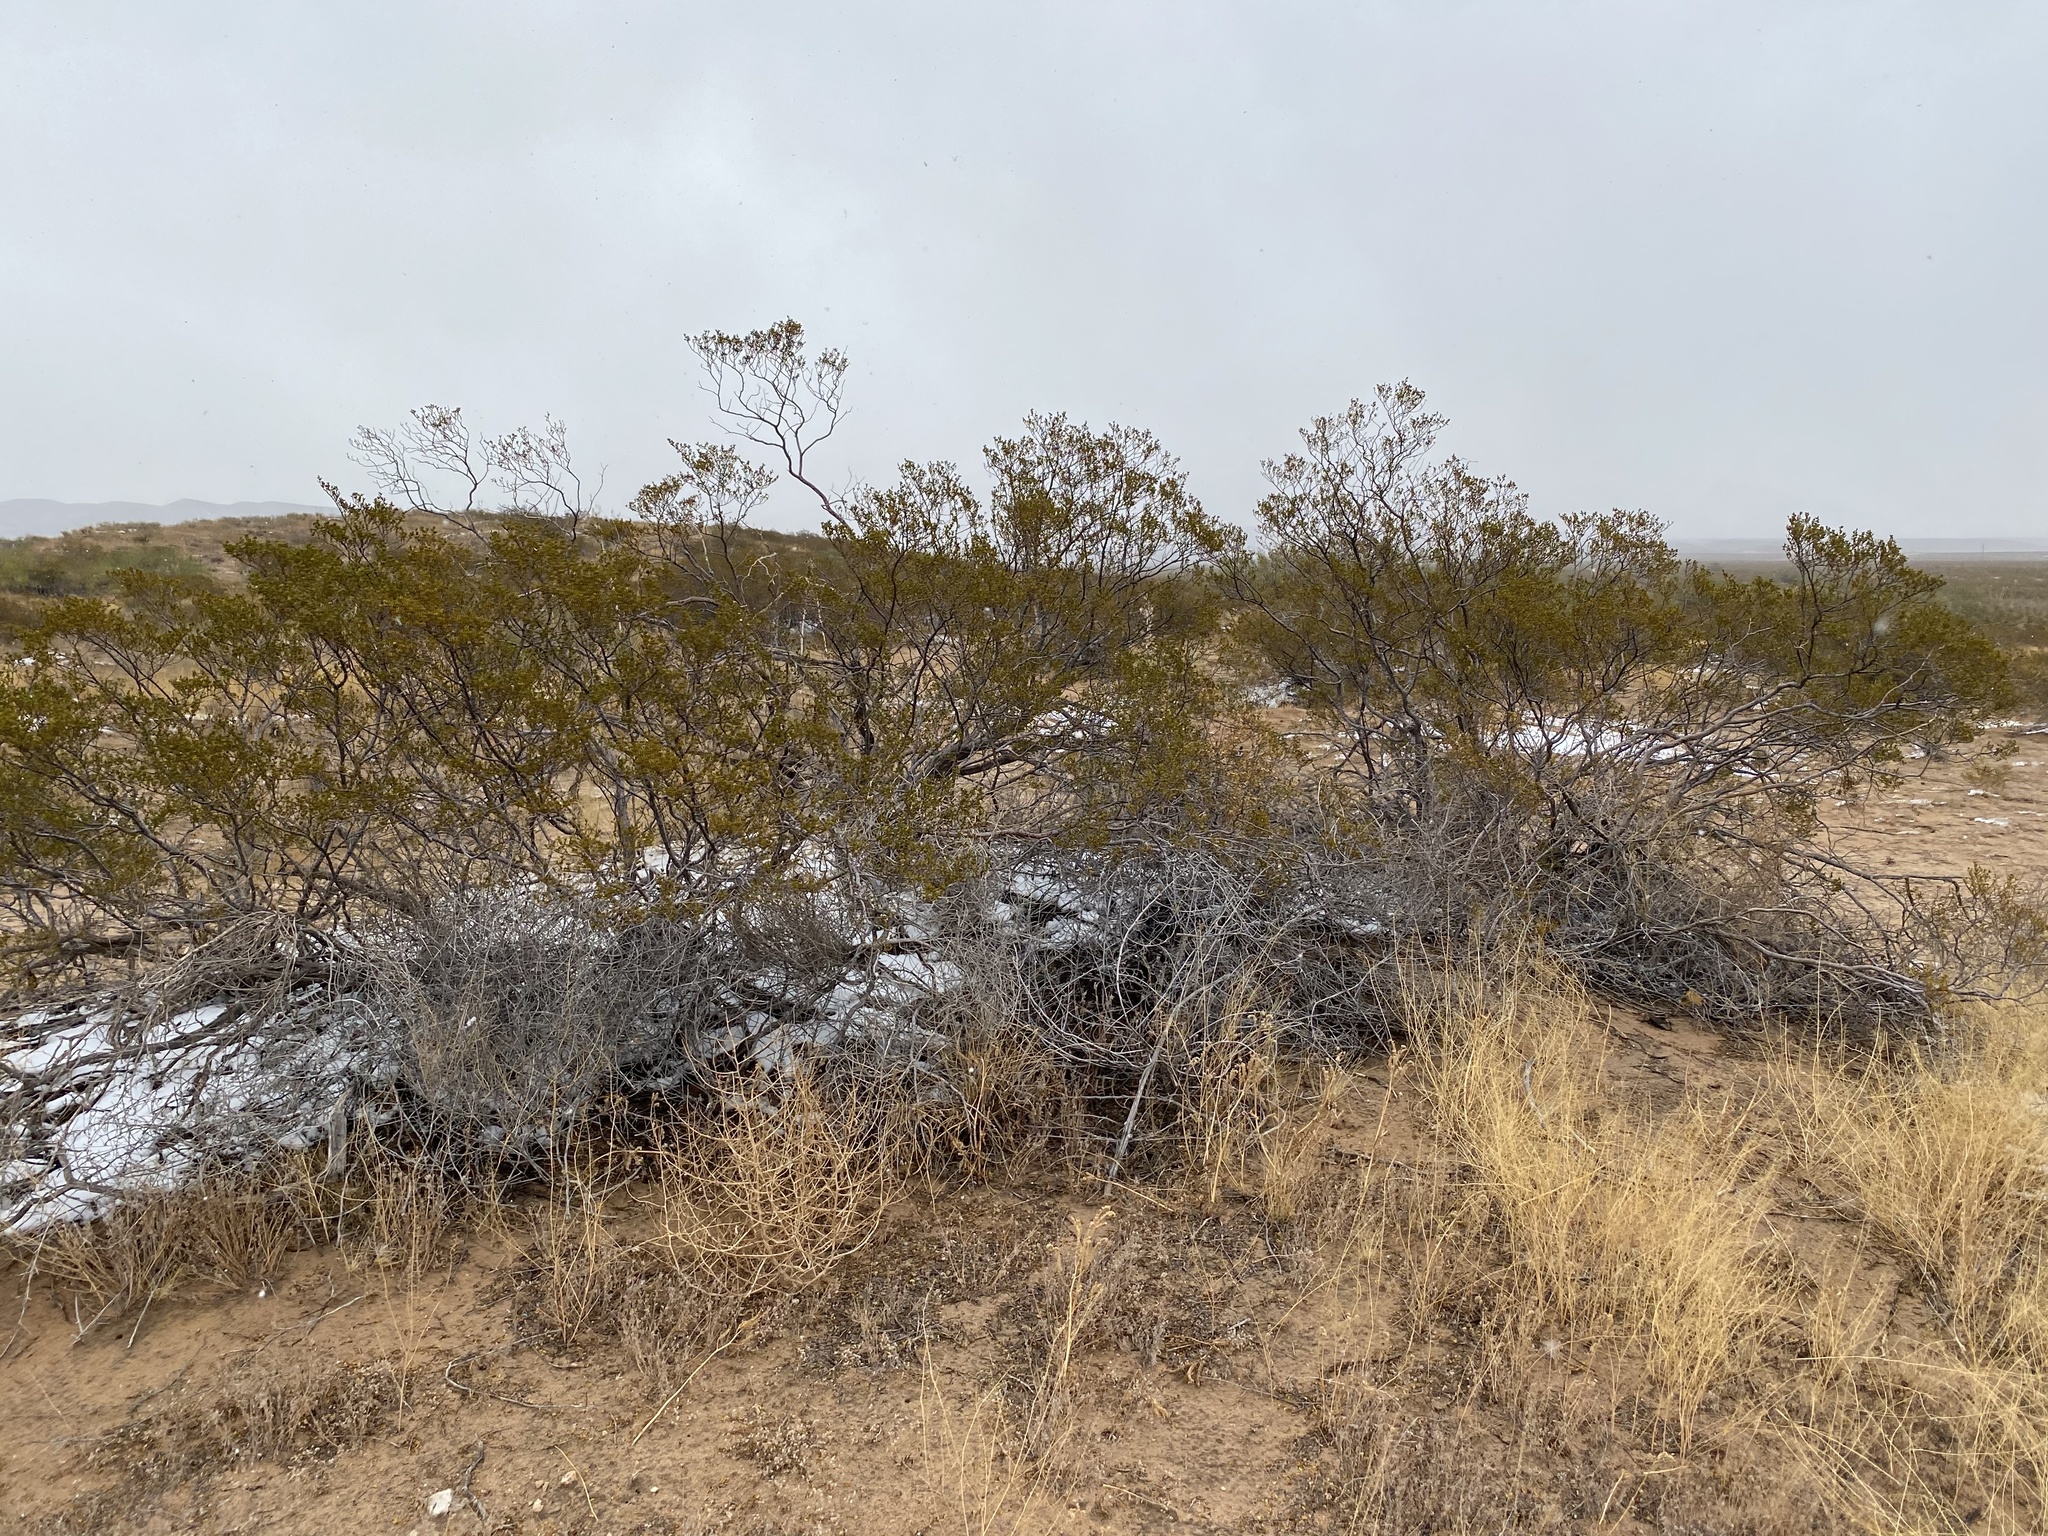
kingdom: Plantae
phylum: Tracheophyta
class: Magnoliopsida
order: Zygophyllales
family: Zygophyllaceae
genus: Larrea
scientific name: Larrea tridentata
